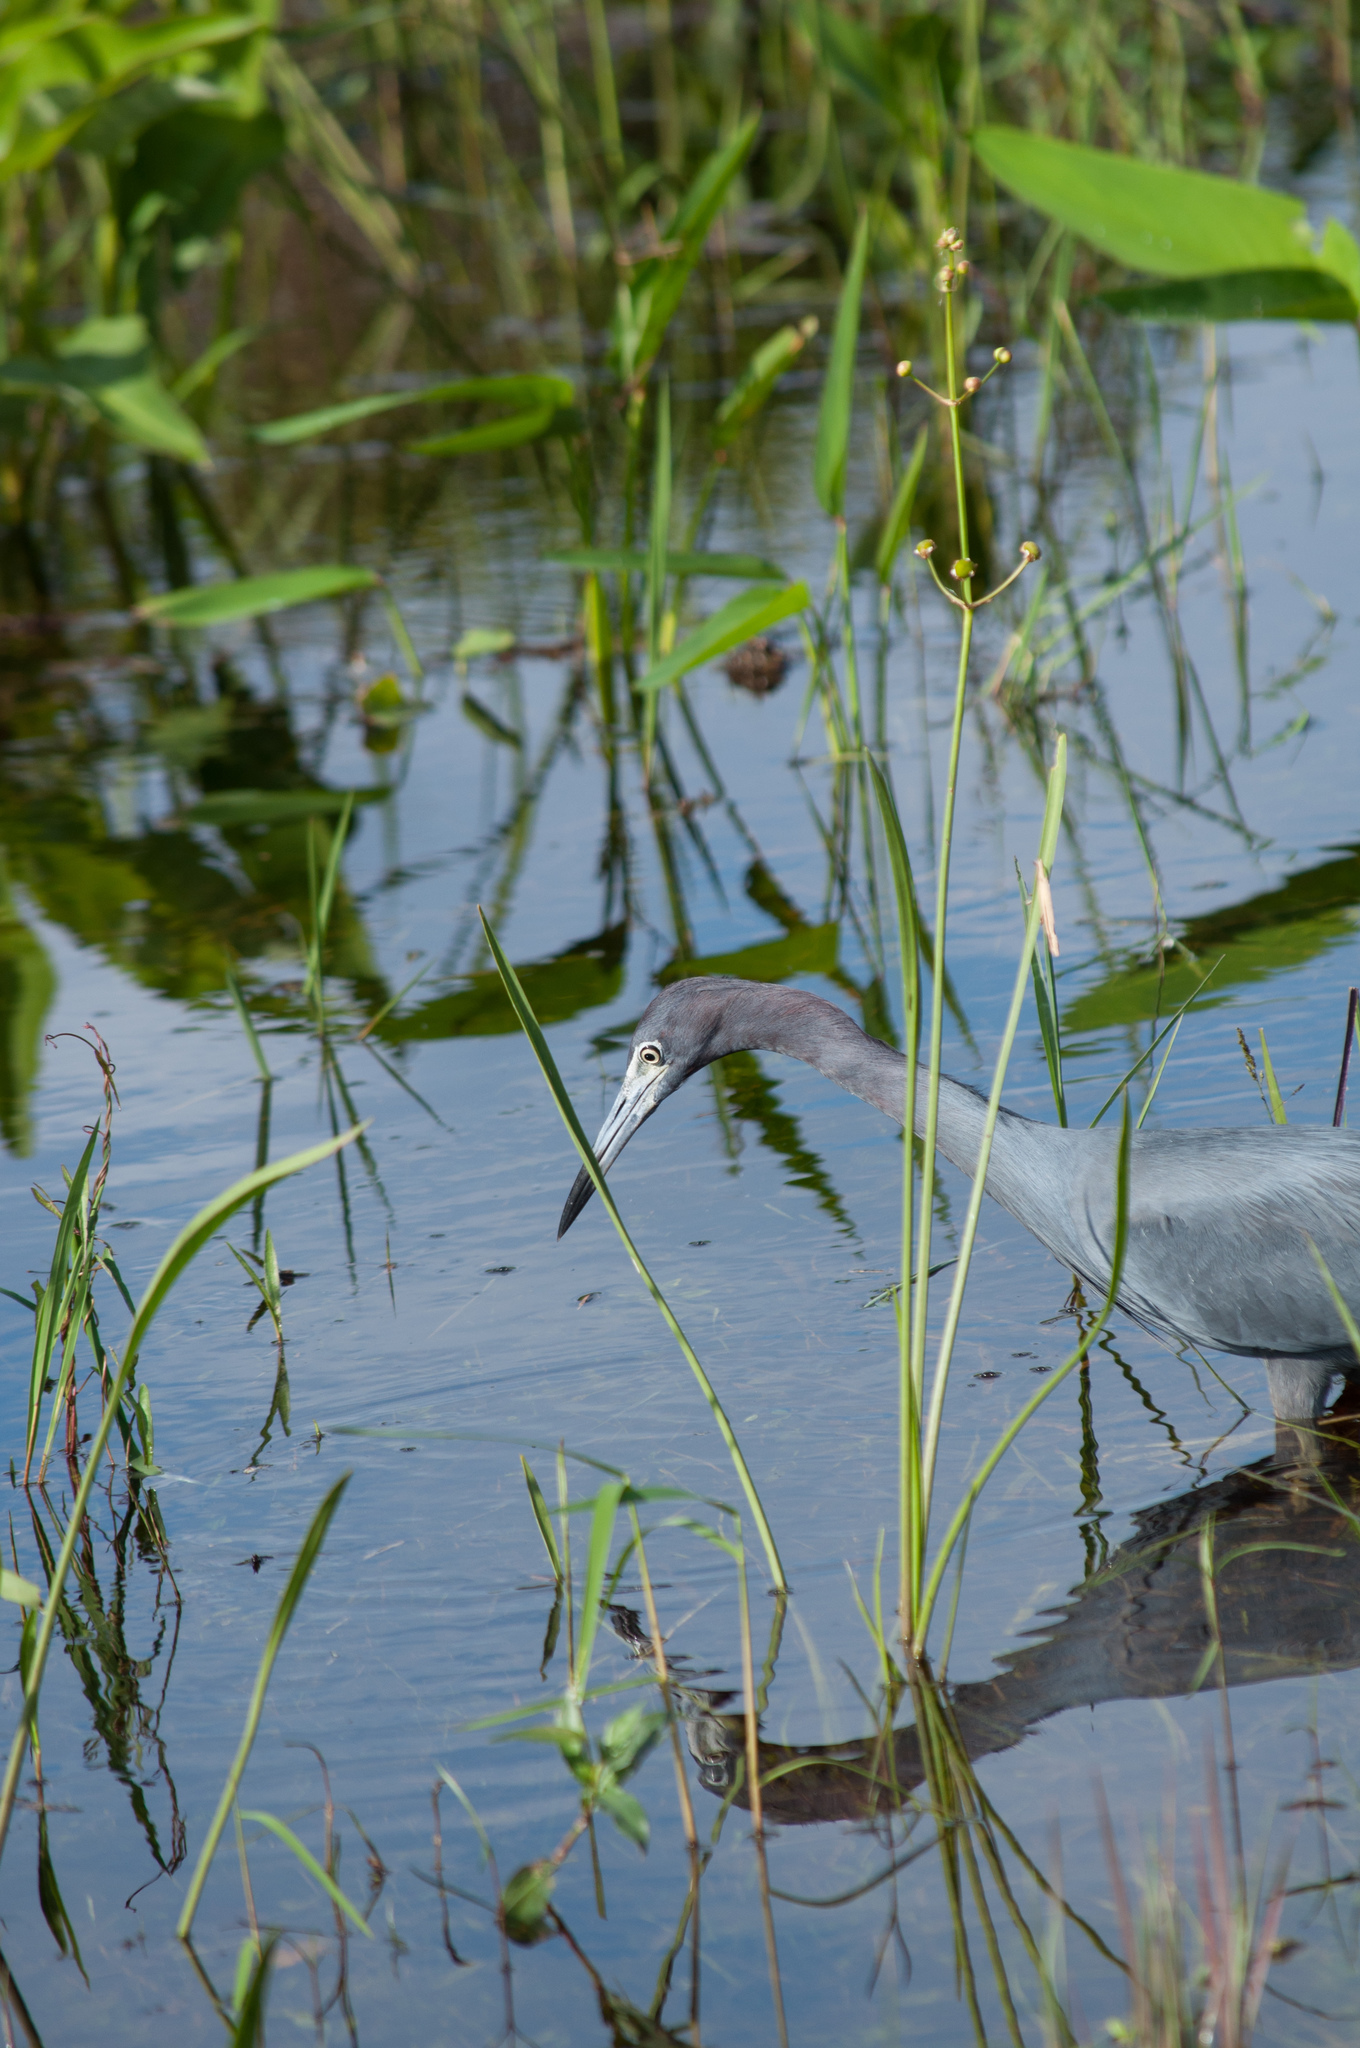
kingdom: Animalia
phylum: Chordata
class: Aves
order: Pelecaniformes
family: Ardeidae
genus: Egretta
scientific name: Egretta caerulea
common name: Little blue heron
